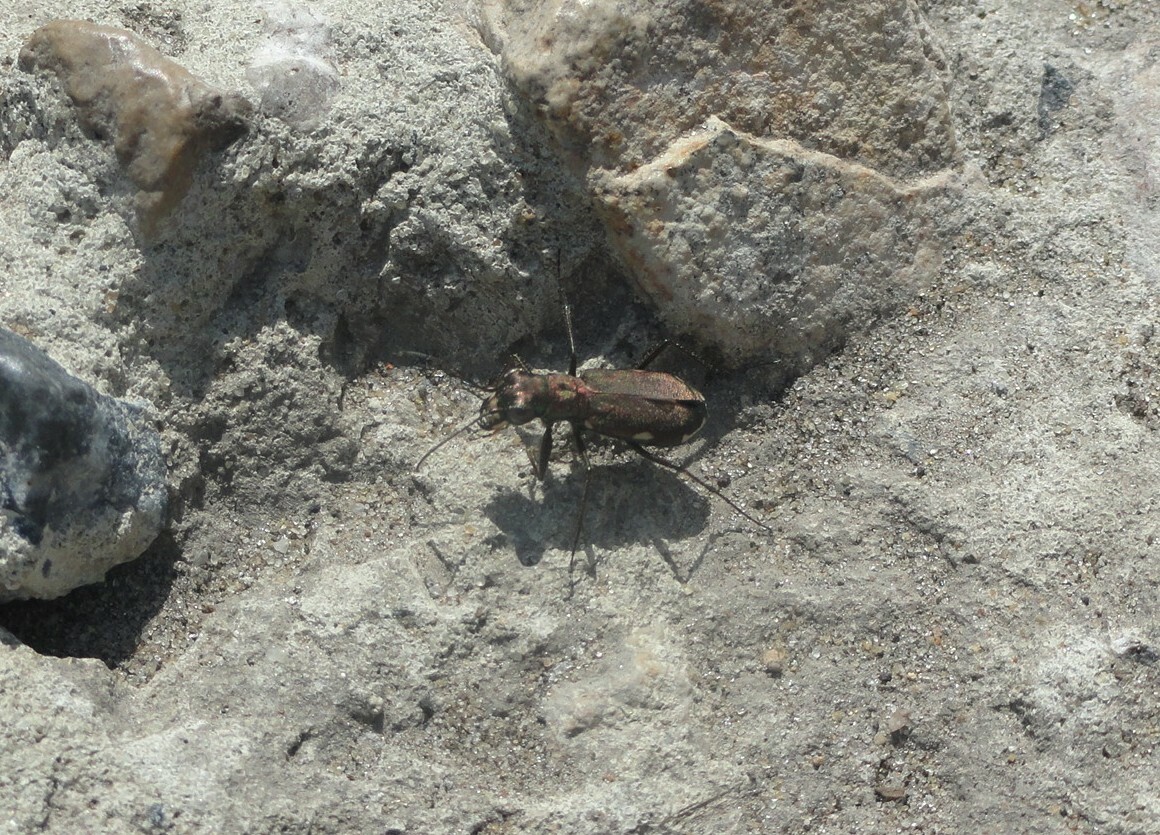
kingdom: Animalia
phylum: Arthropoda
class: Insecta
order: Coleoptera
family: Carabidae
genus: Cylindera
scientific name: Cylindera germanica
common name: Cliff tiger beetle
